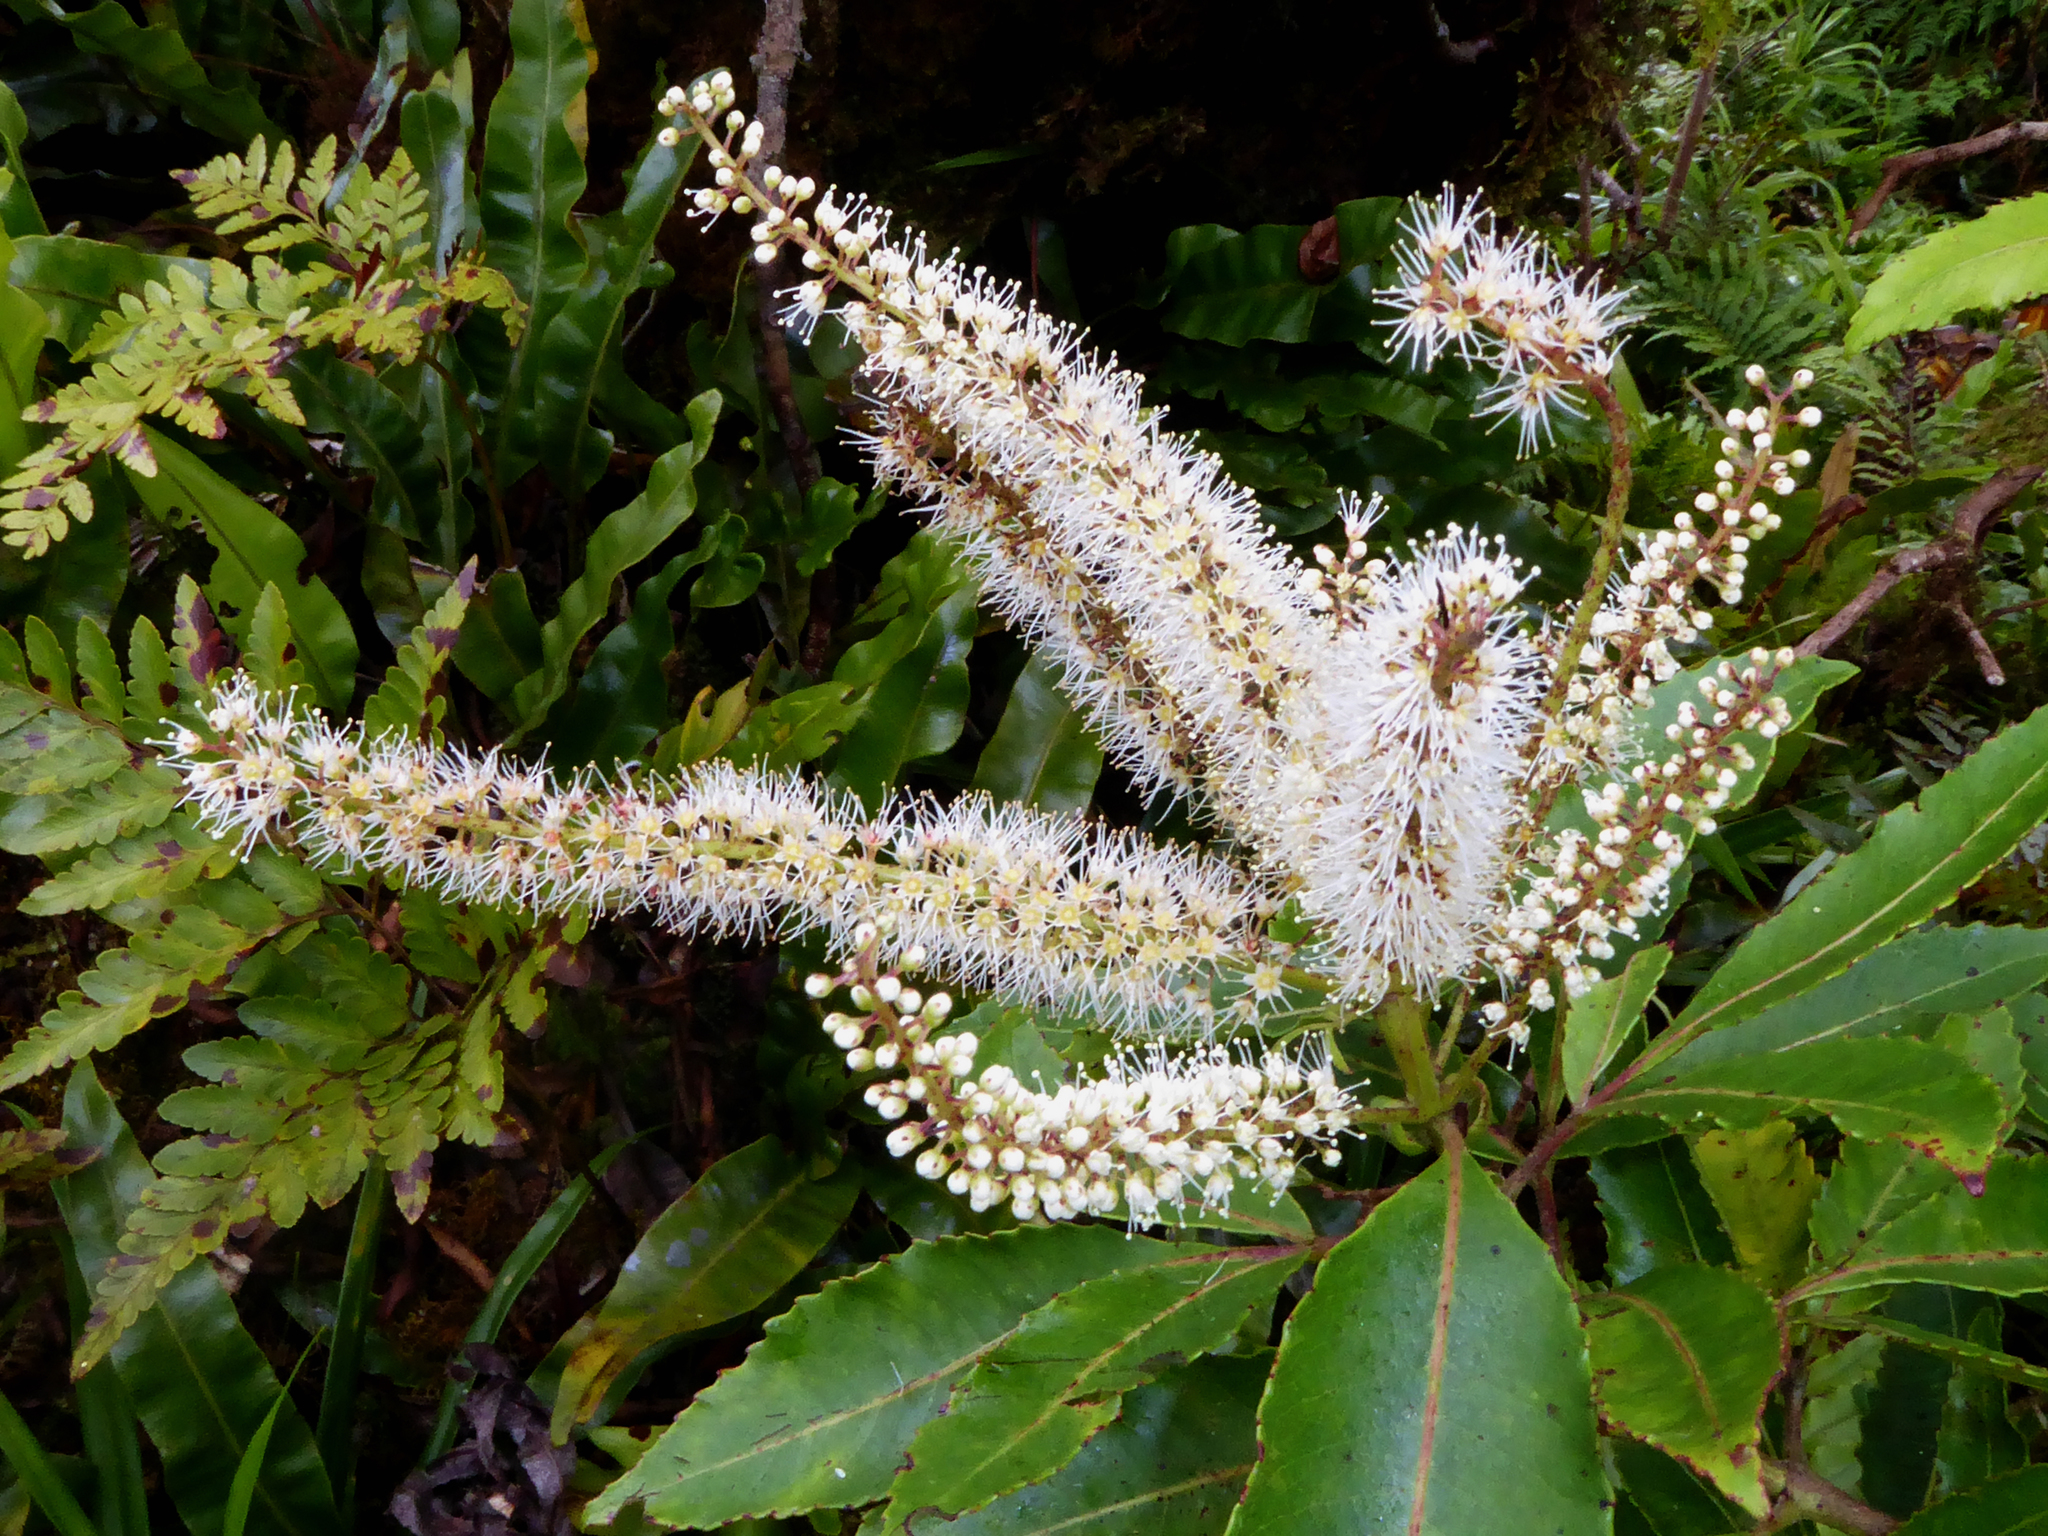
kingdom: Plantae
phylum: Tracheophyta
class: Magnoliopsida
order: Oxalidales
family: Cunoniaceae
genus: Pterophylla
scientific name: Pterophylla samoensis
